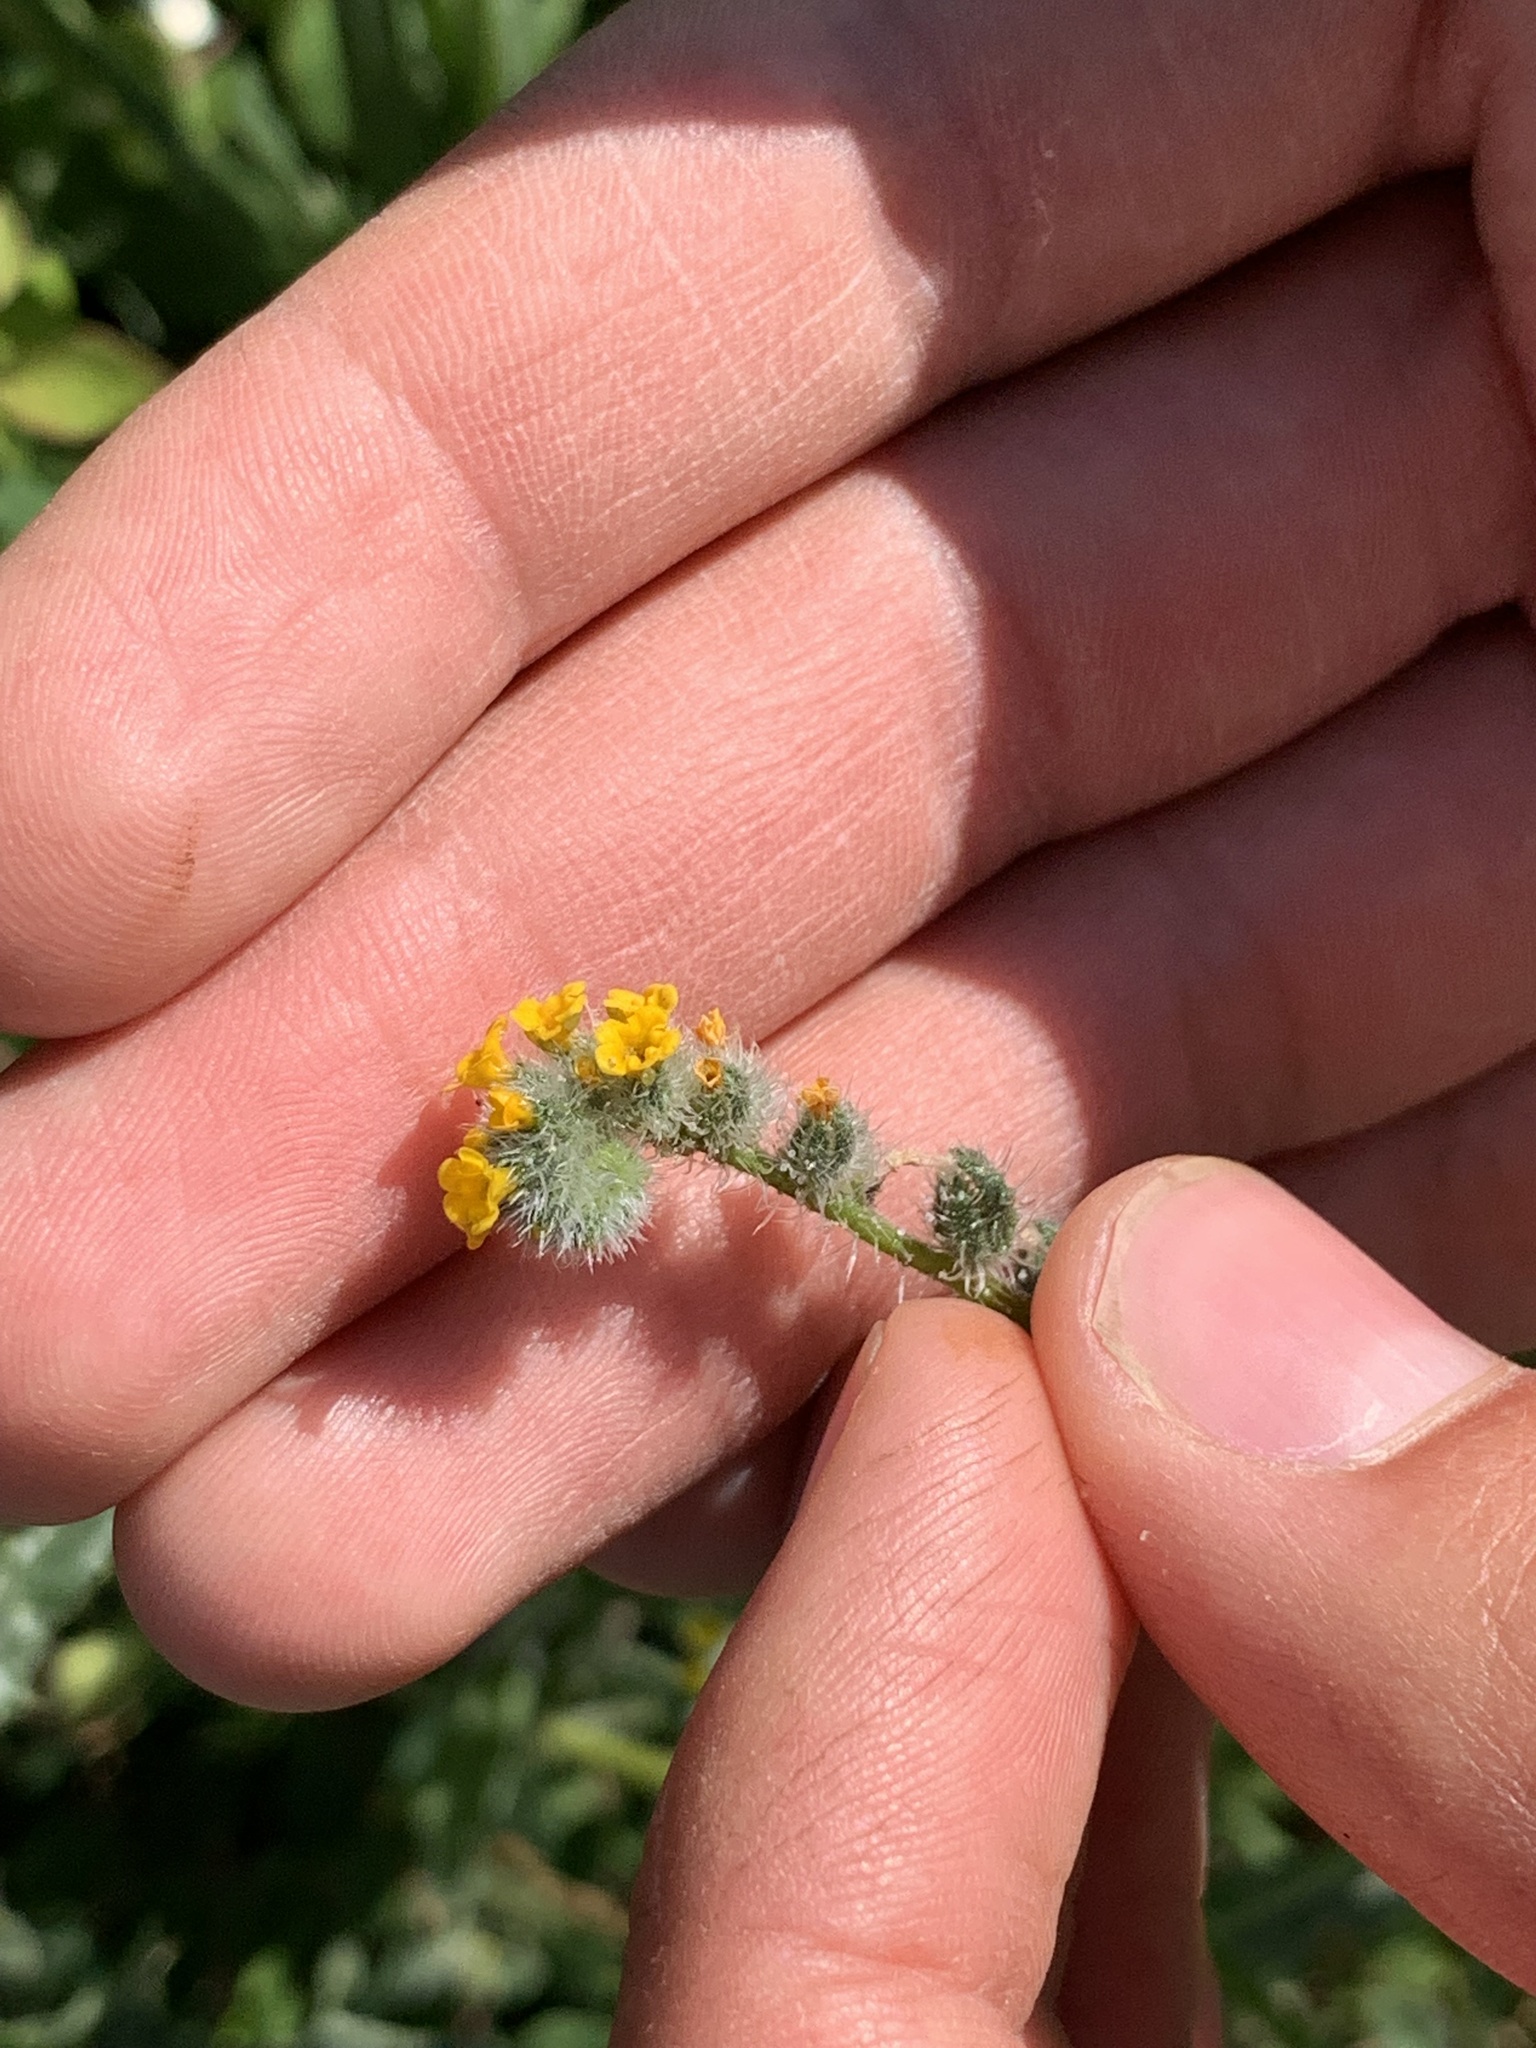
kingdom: Plantae
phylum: Tracheophyta
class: Magnoliopsida
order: Boraginales
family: Boraginaceae
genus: Amsinckia
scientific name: Amsinckia menziesii
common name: Menzies' fiddleneck
